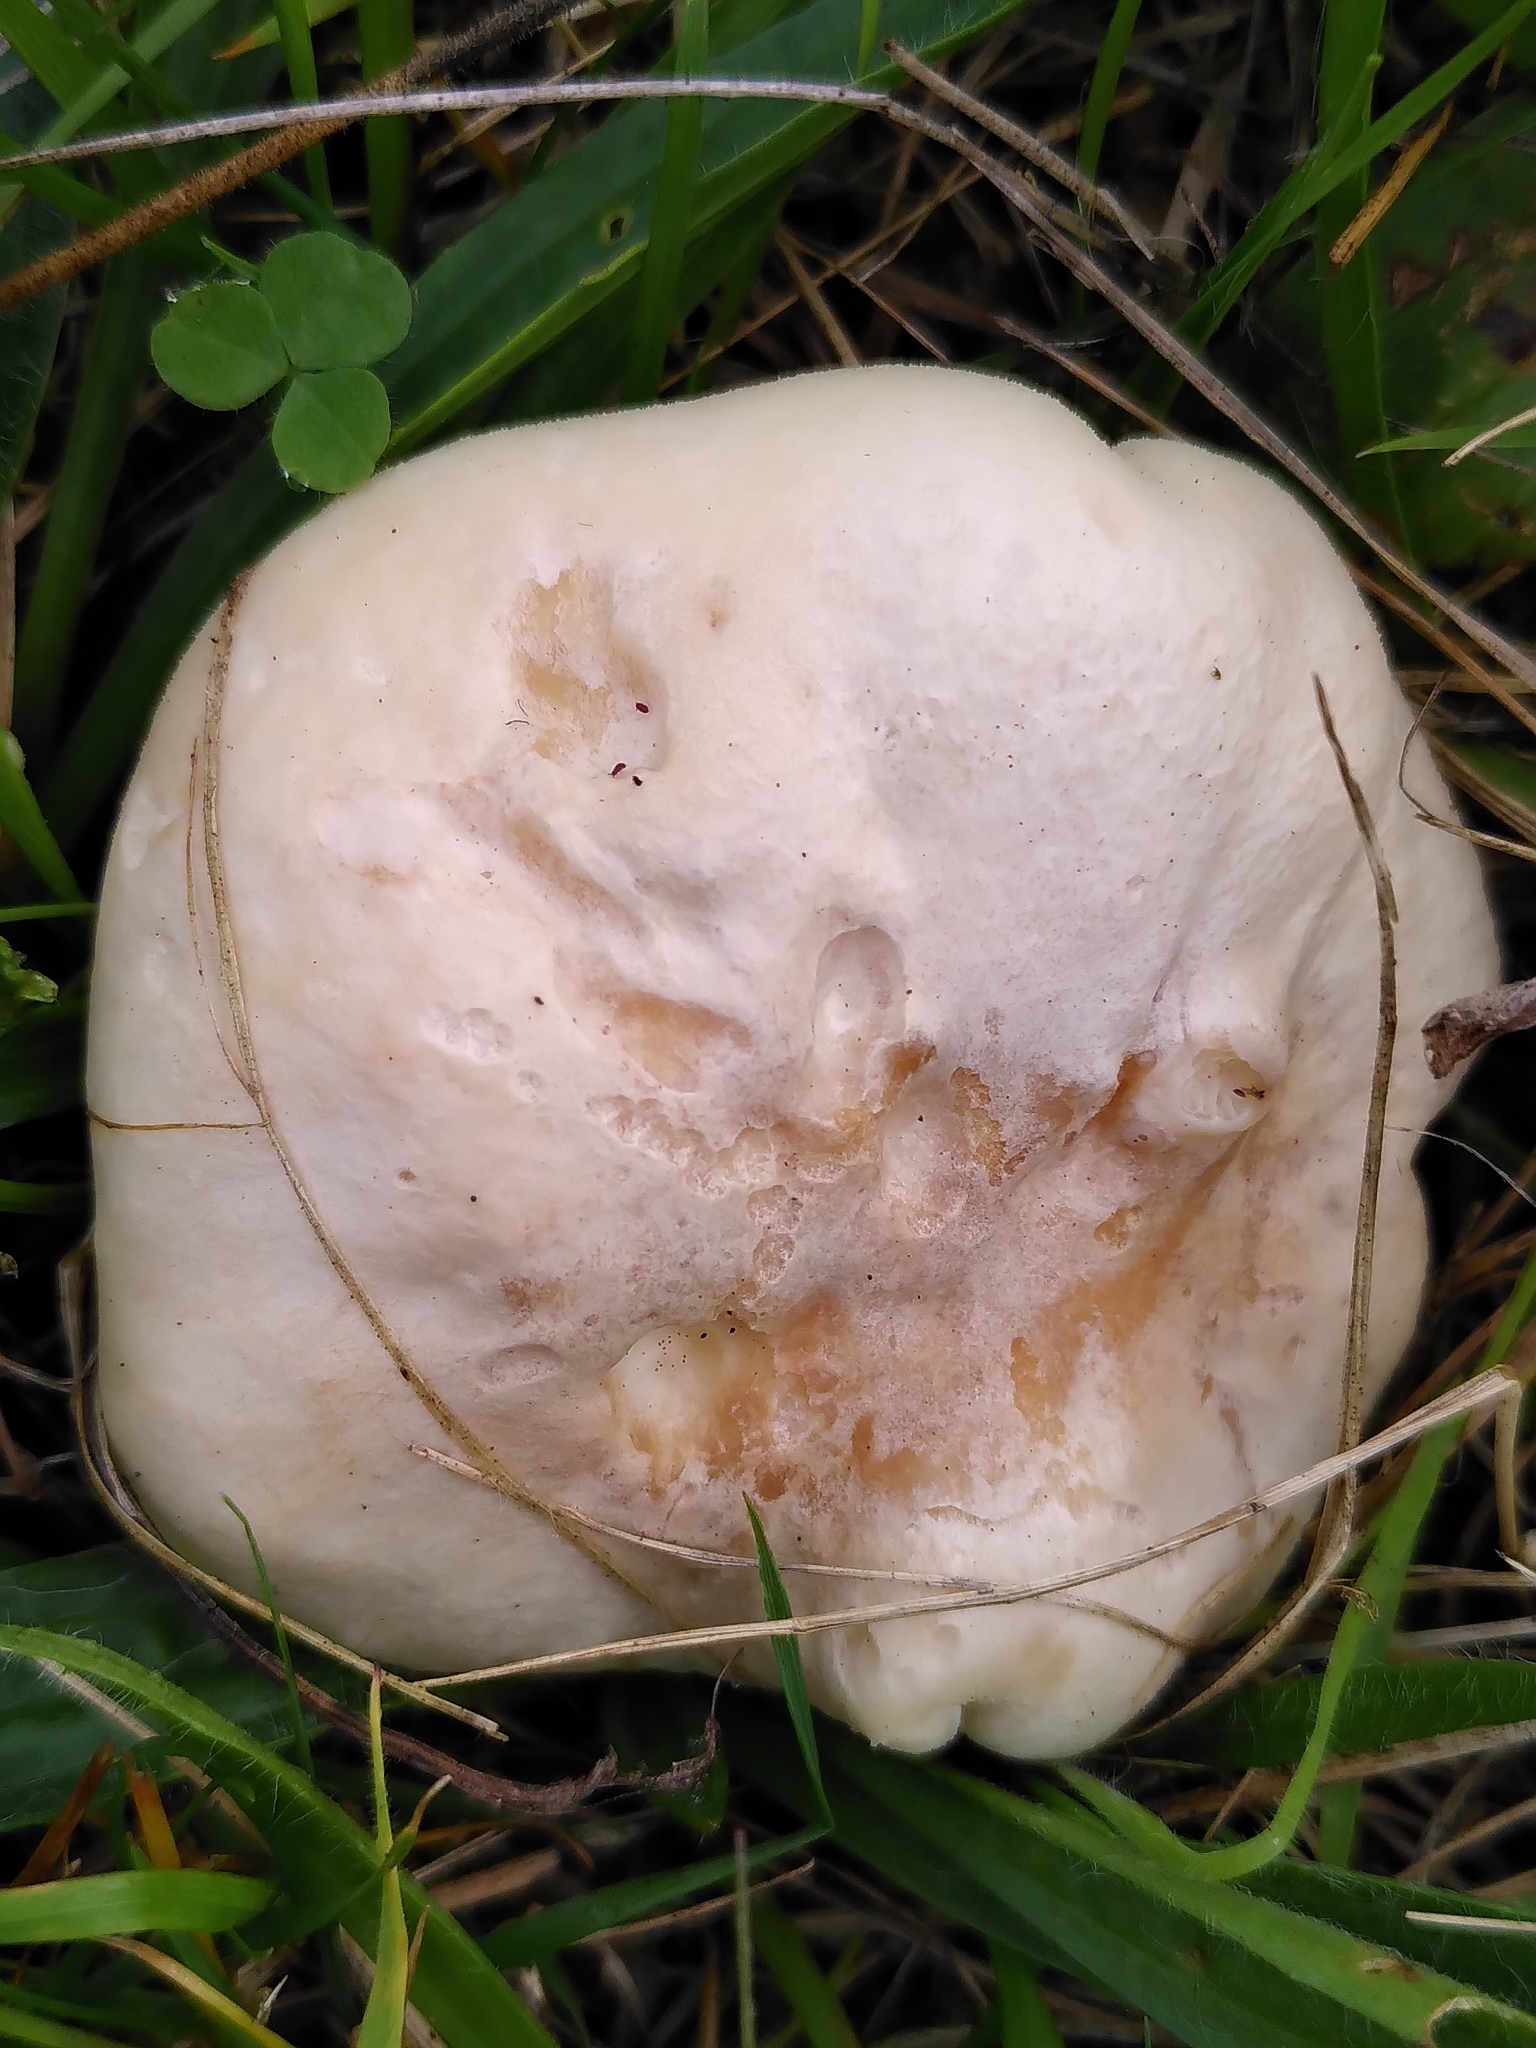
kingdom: Fungi
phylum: Basidiomycota
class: Agaricomycetes
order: Agaricales
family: Hygrophoraceae
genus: Cuphophyllus
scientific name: Cuphophyllus pratensis
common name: Meadow waxcap
